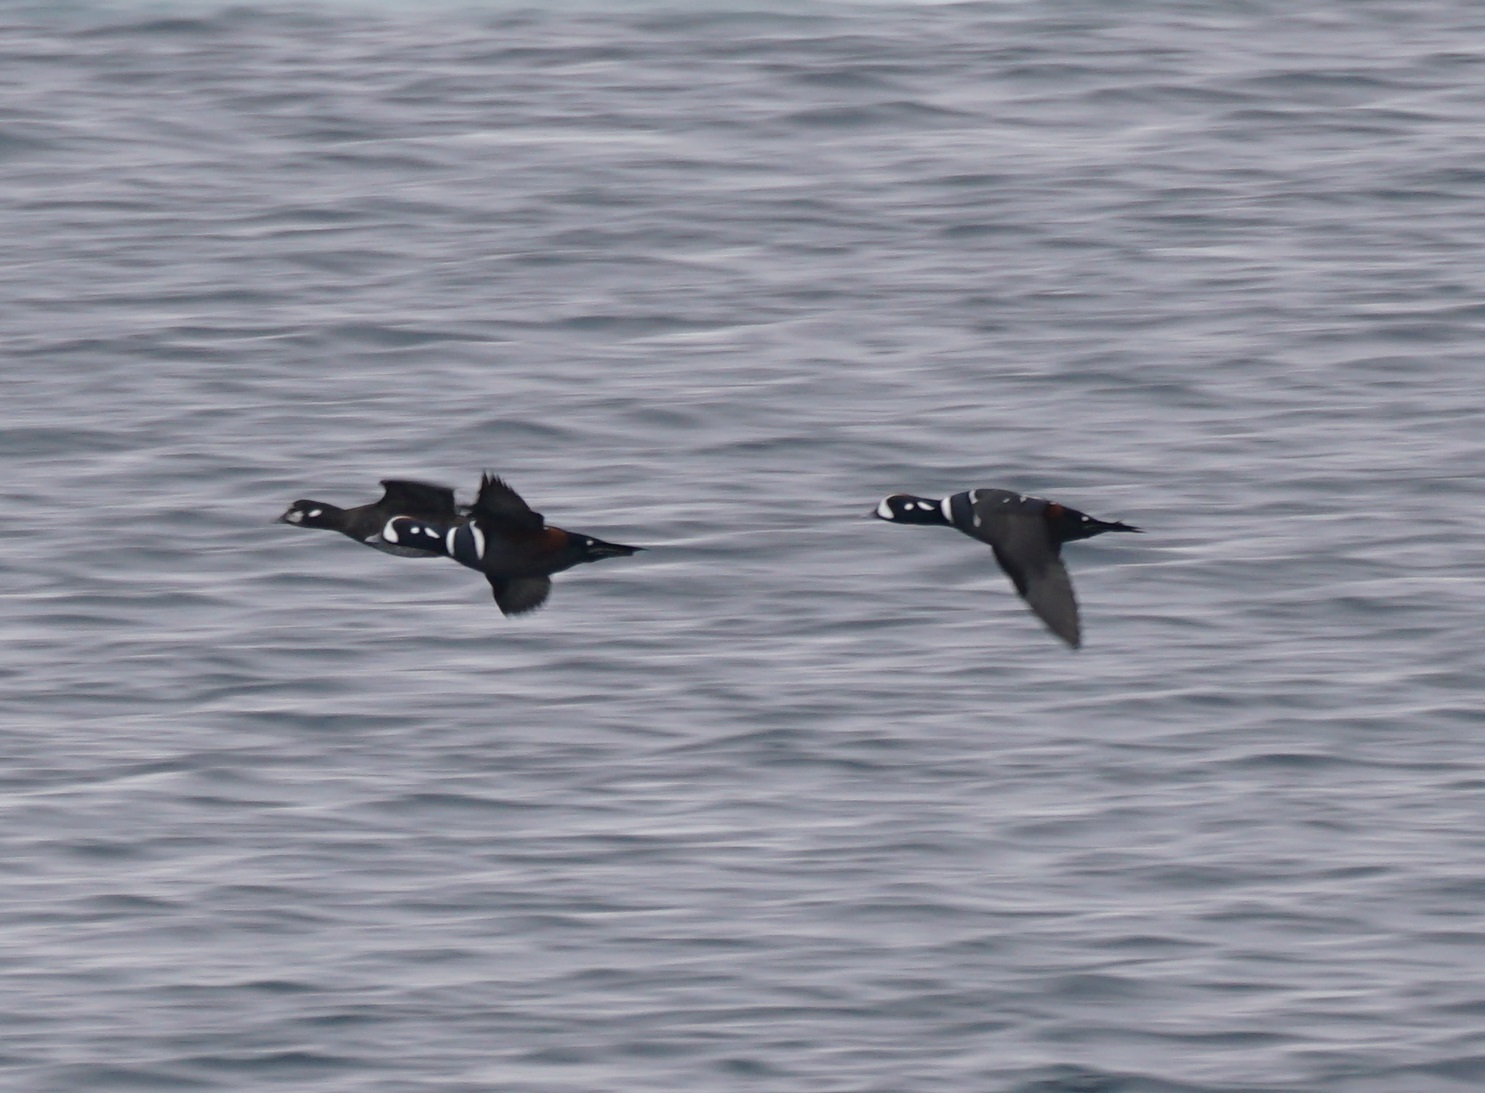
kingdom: Animalia
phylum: Chordata
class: Aves
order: Anseriformes
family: Anatidae
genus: Histrionicus
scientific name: Histrionicus histrionicus
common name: Harlequin duck
